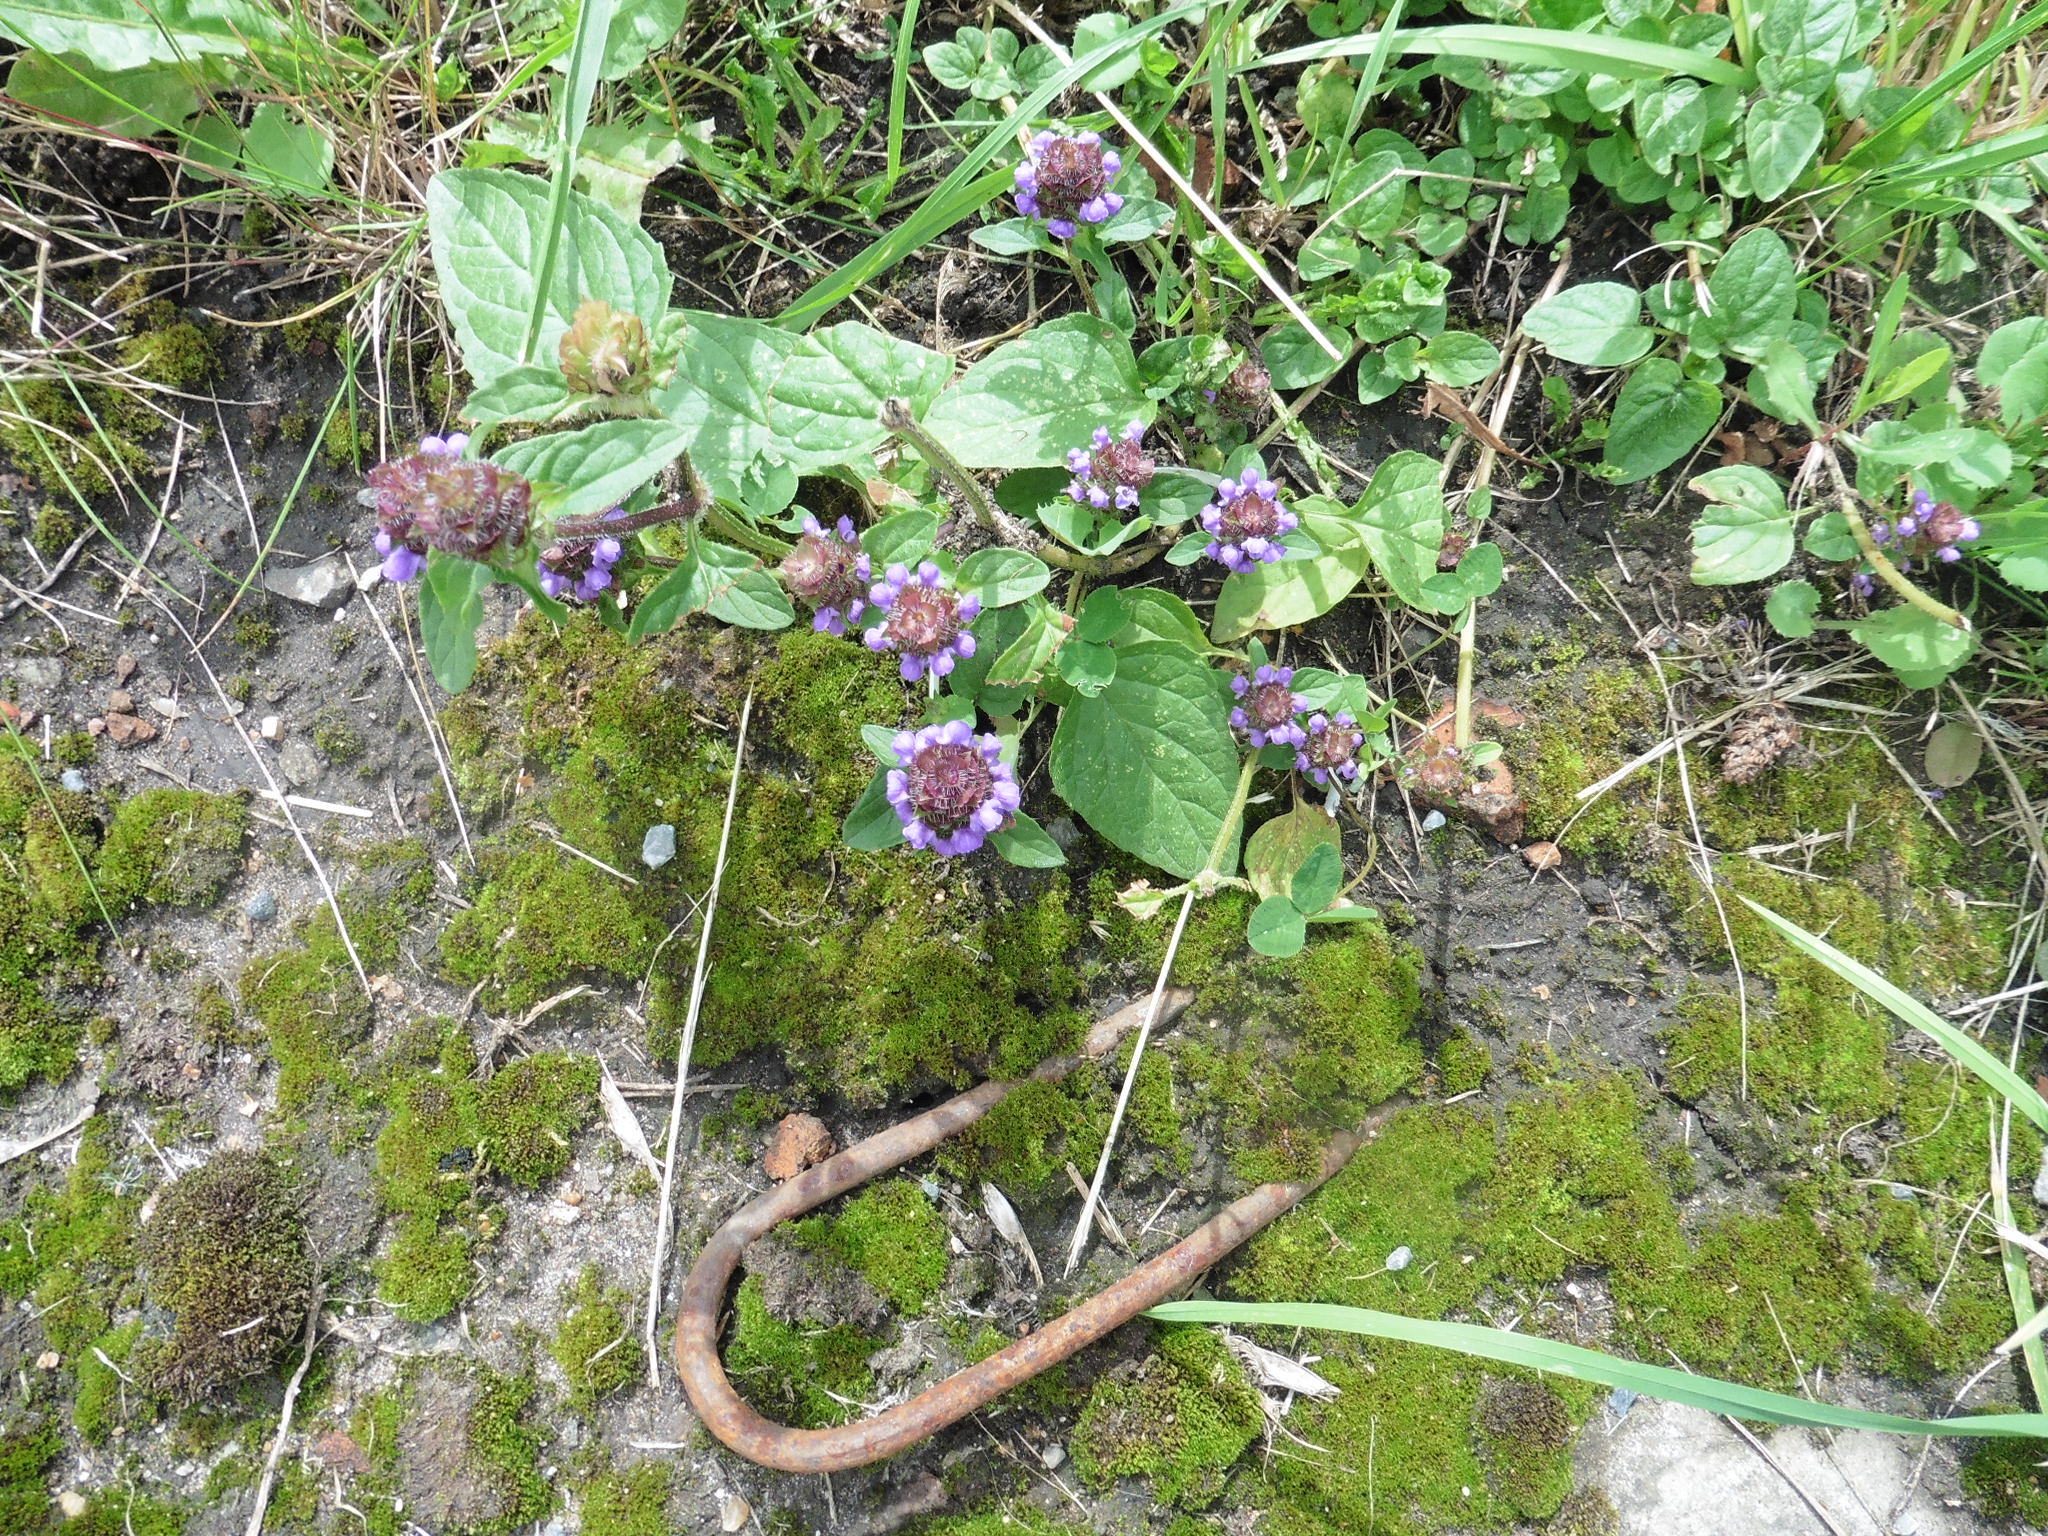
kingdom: Plantae
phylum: Tracheophyta
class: Magnoliopsida
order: Lamiales
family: Lamiaceae
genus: Prunella
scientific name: Prunella vulgaris
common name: Heal-all
